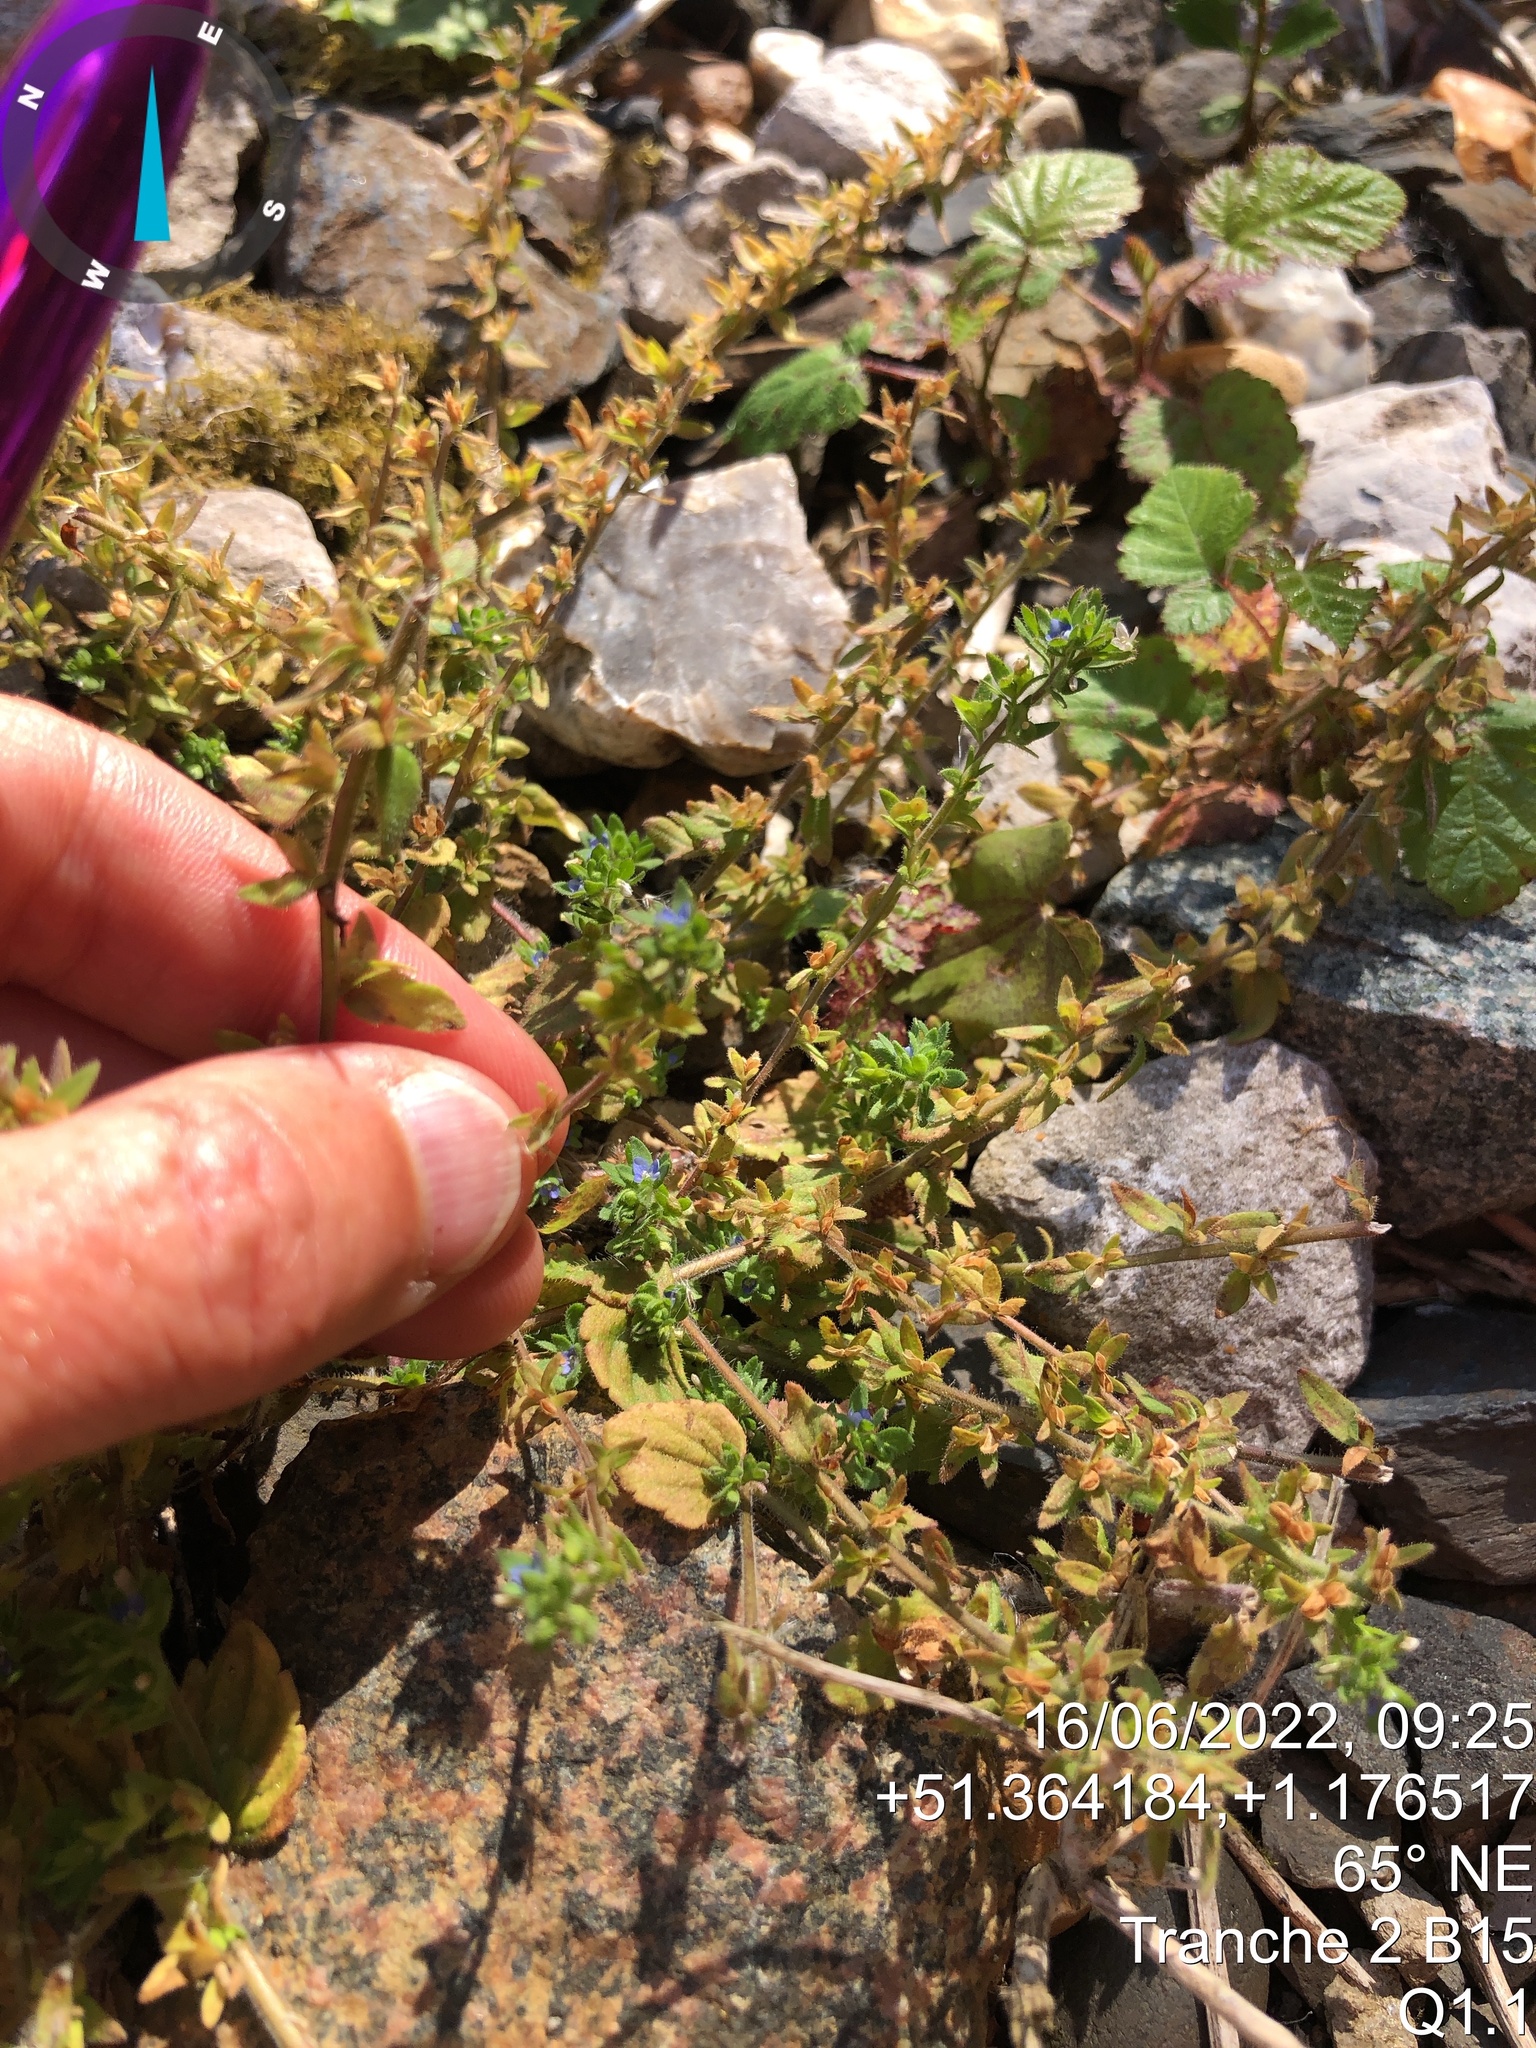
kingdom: Plantae
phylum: Tracheophyta
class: Magnoliopsida
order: Lamiales
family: Plantaginaceae
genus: Veronica
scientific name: Veronica arvensis
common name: Corn speedwell
